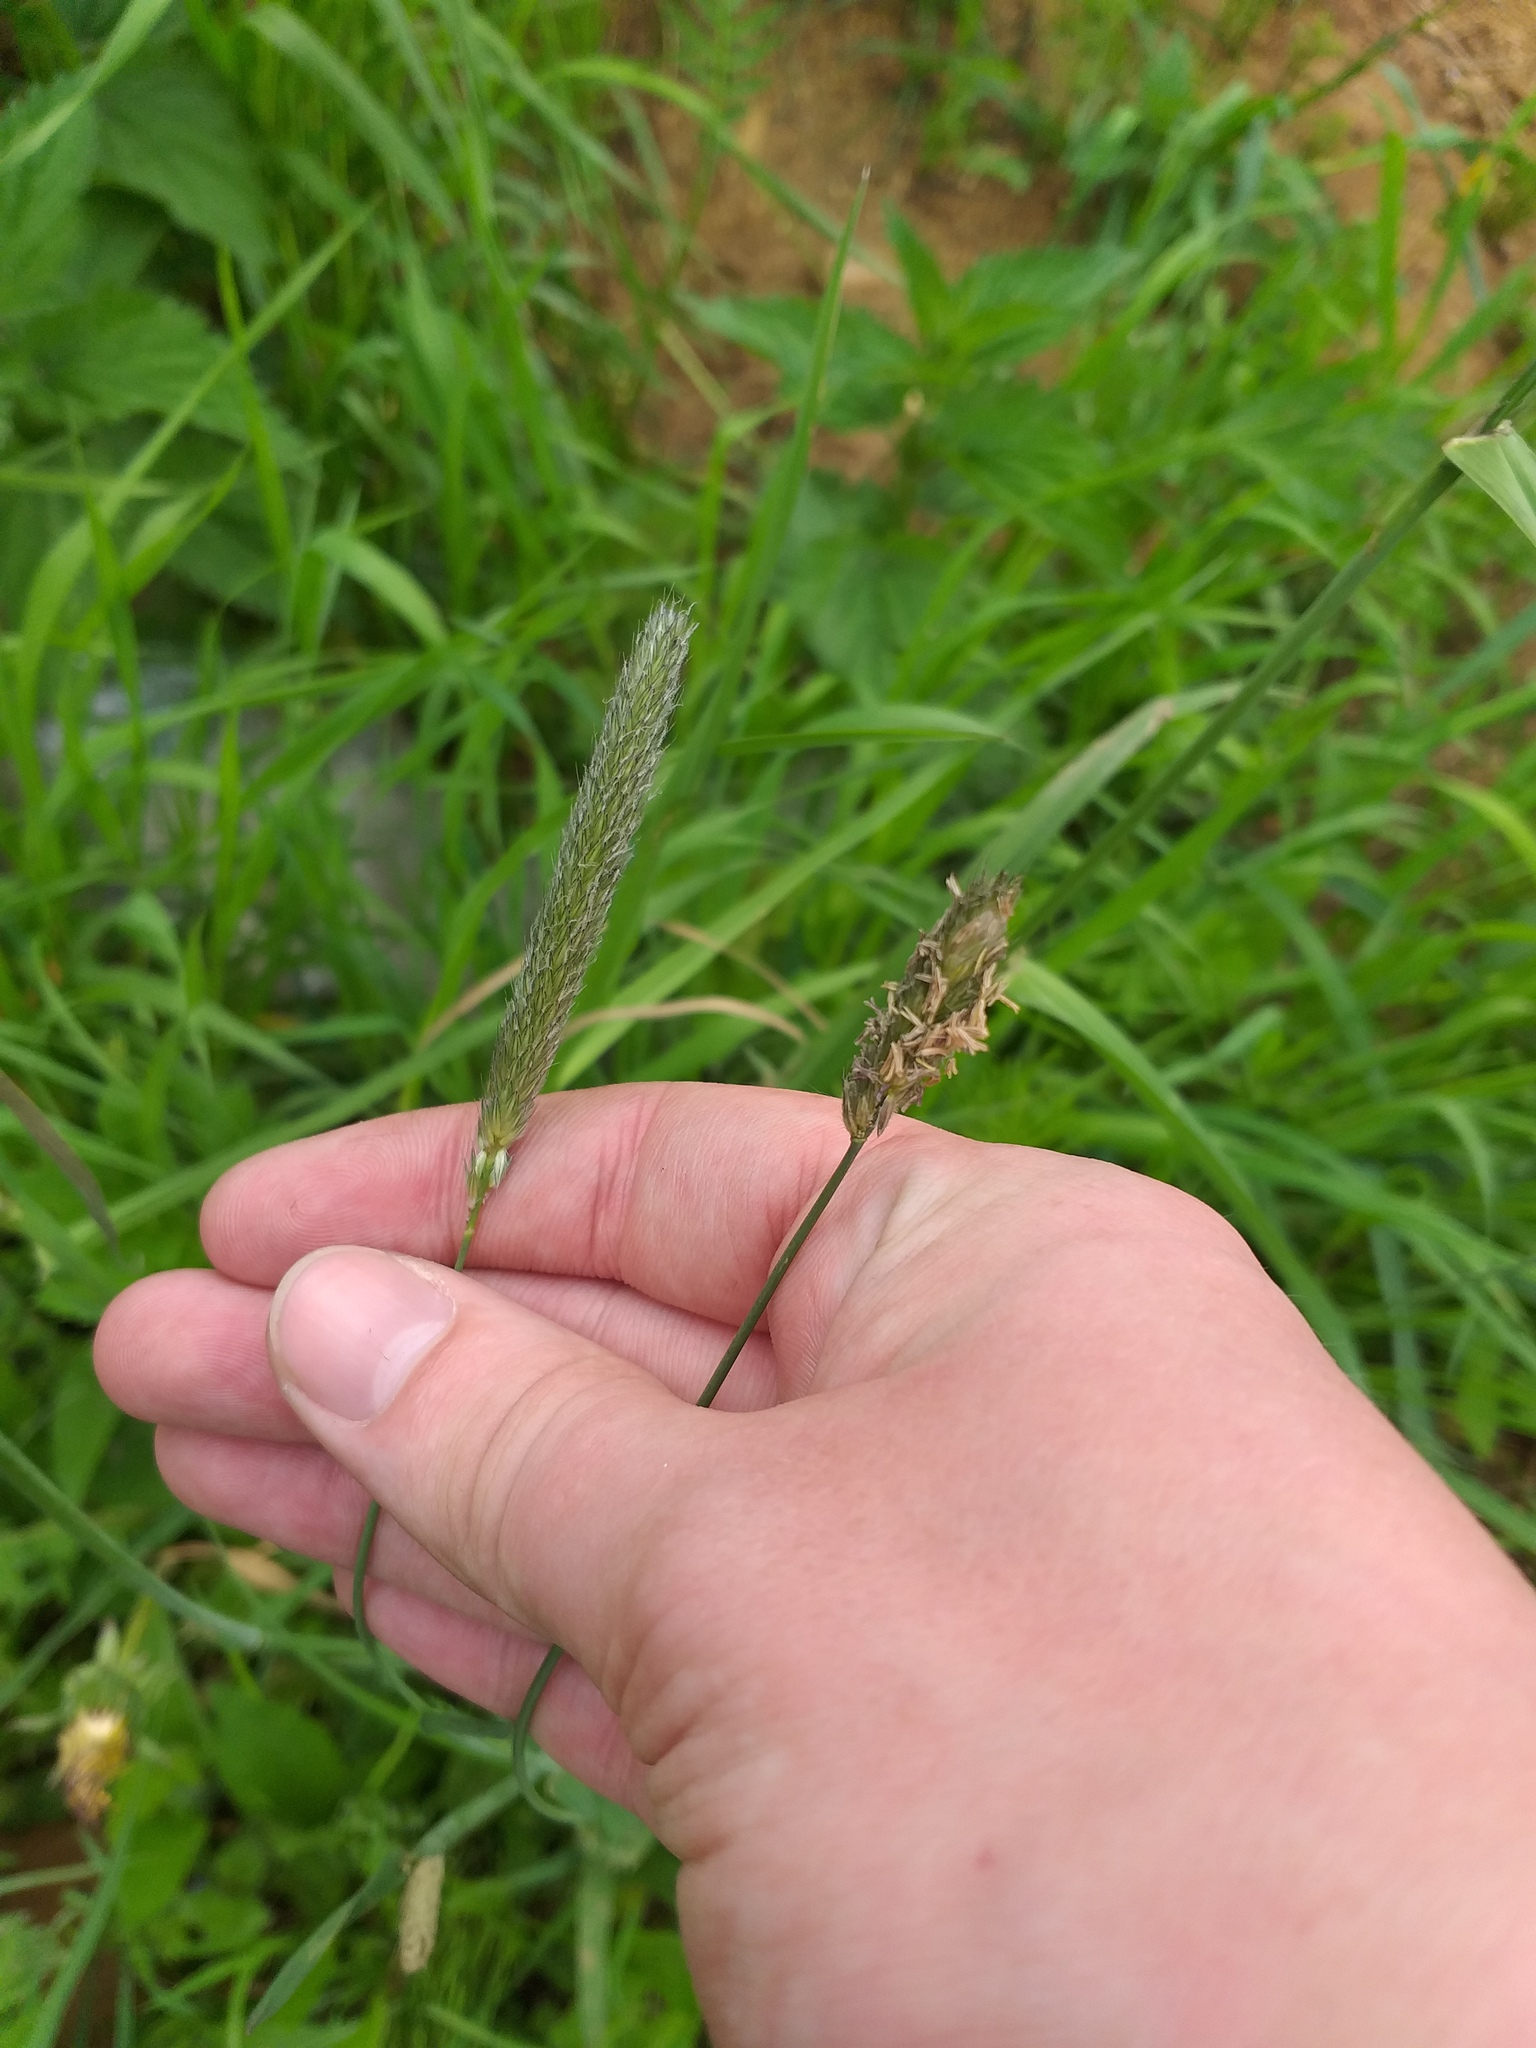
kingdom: Plantae
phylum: Tracheophyta
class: Liliopsida
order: Poales
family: Poaceae
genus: Alopecurus
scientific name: Alopecurus pratensis
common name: Meadow foxtail
